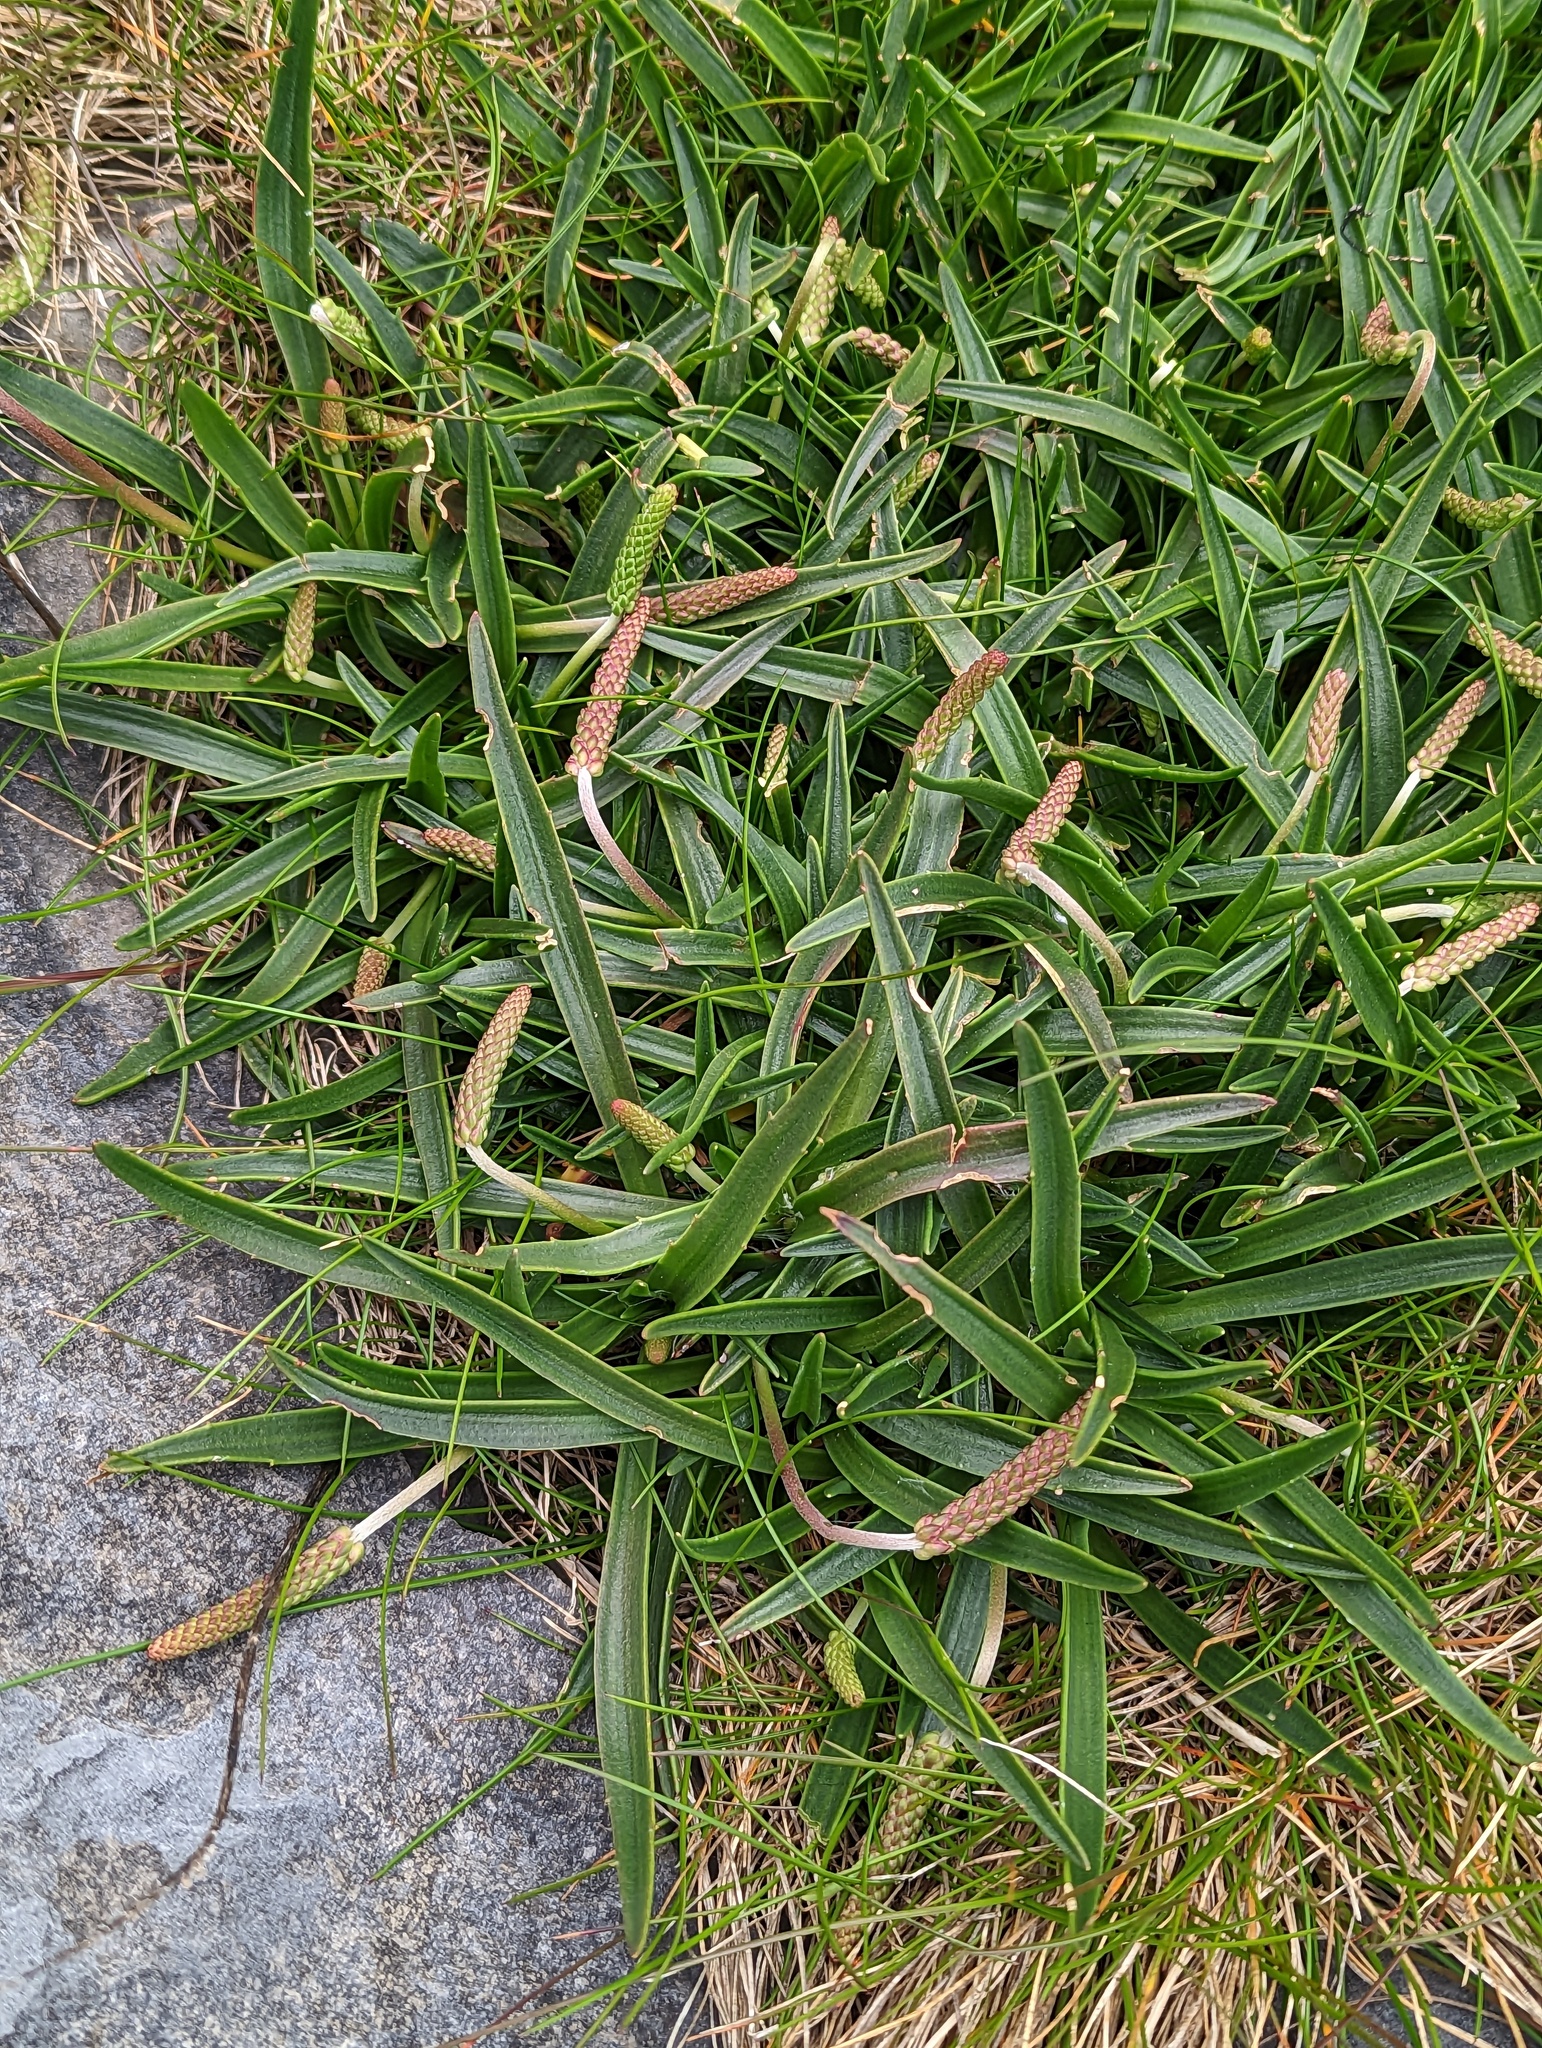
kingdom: Plantae
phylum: Tracheophyta
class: Magnoliopsida
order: Lamiales
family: Plantaginaceae
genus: Plantago
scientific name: Plantago maritima
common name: Sea plantain
